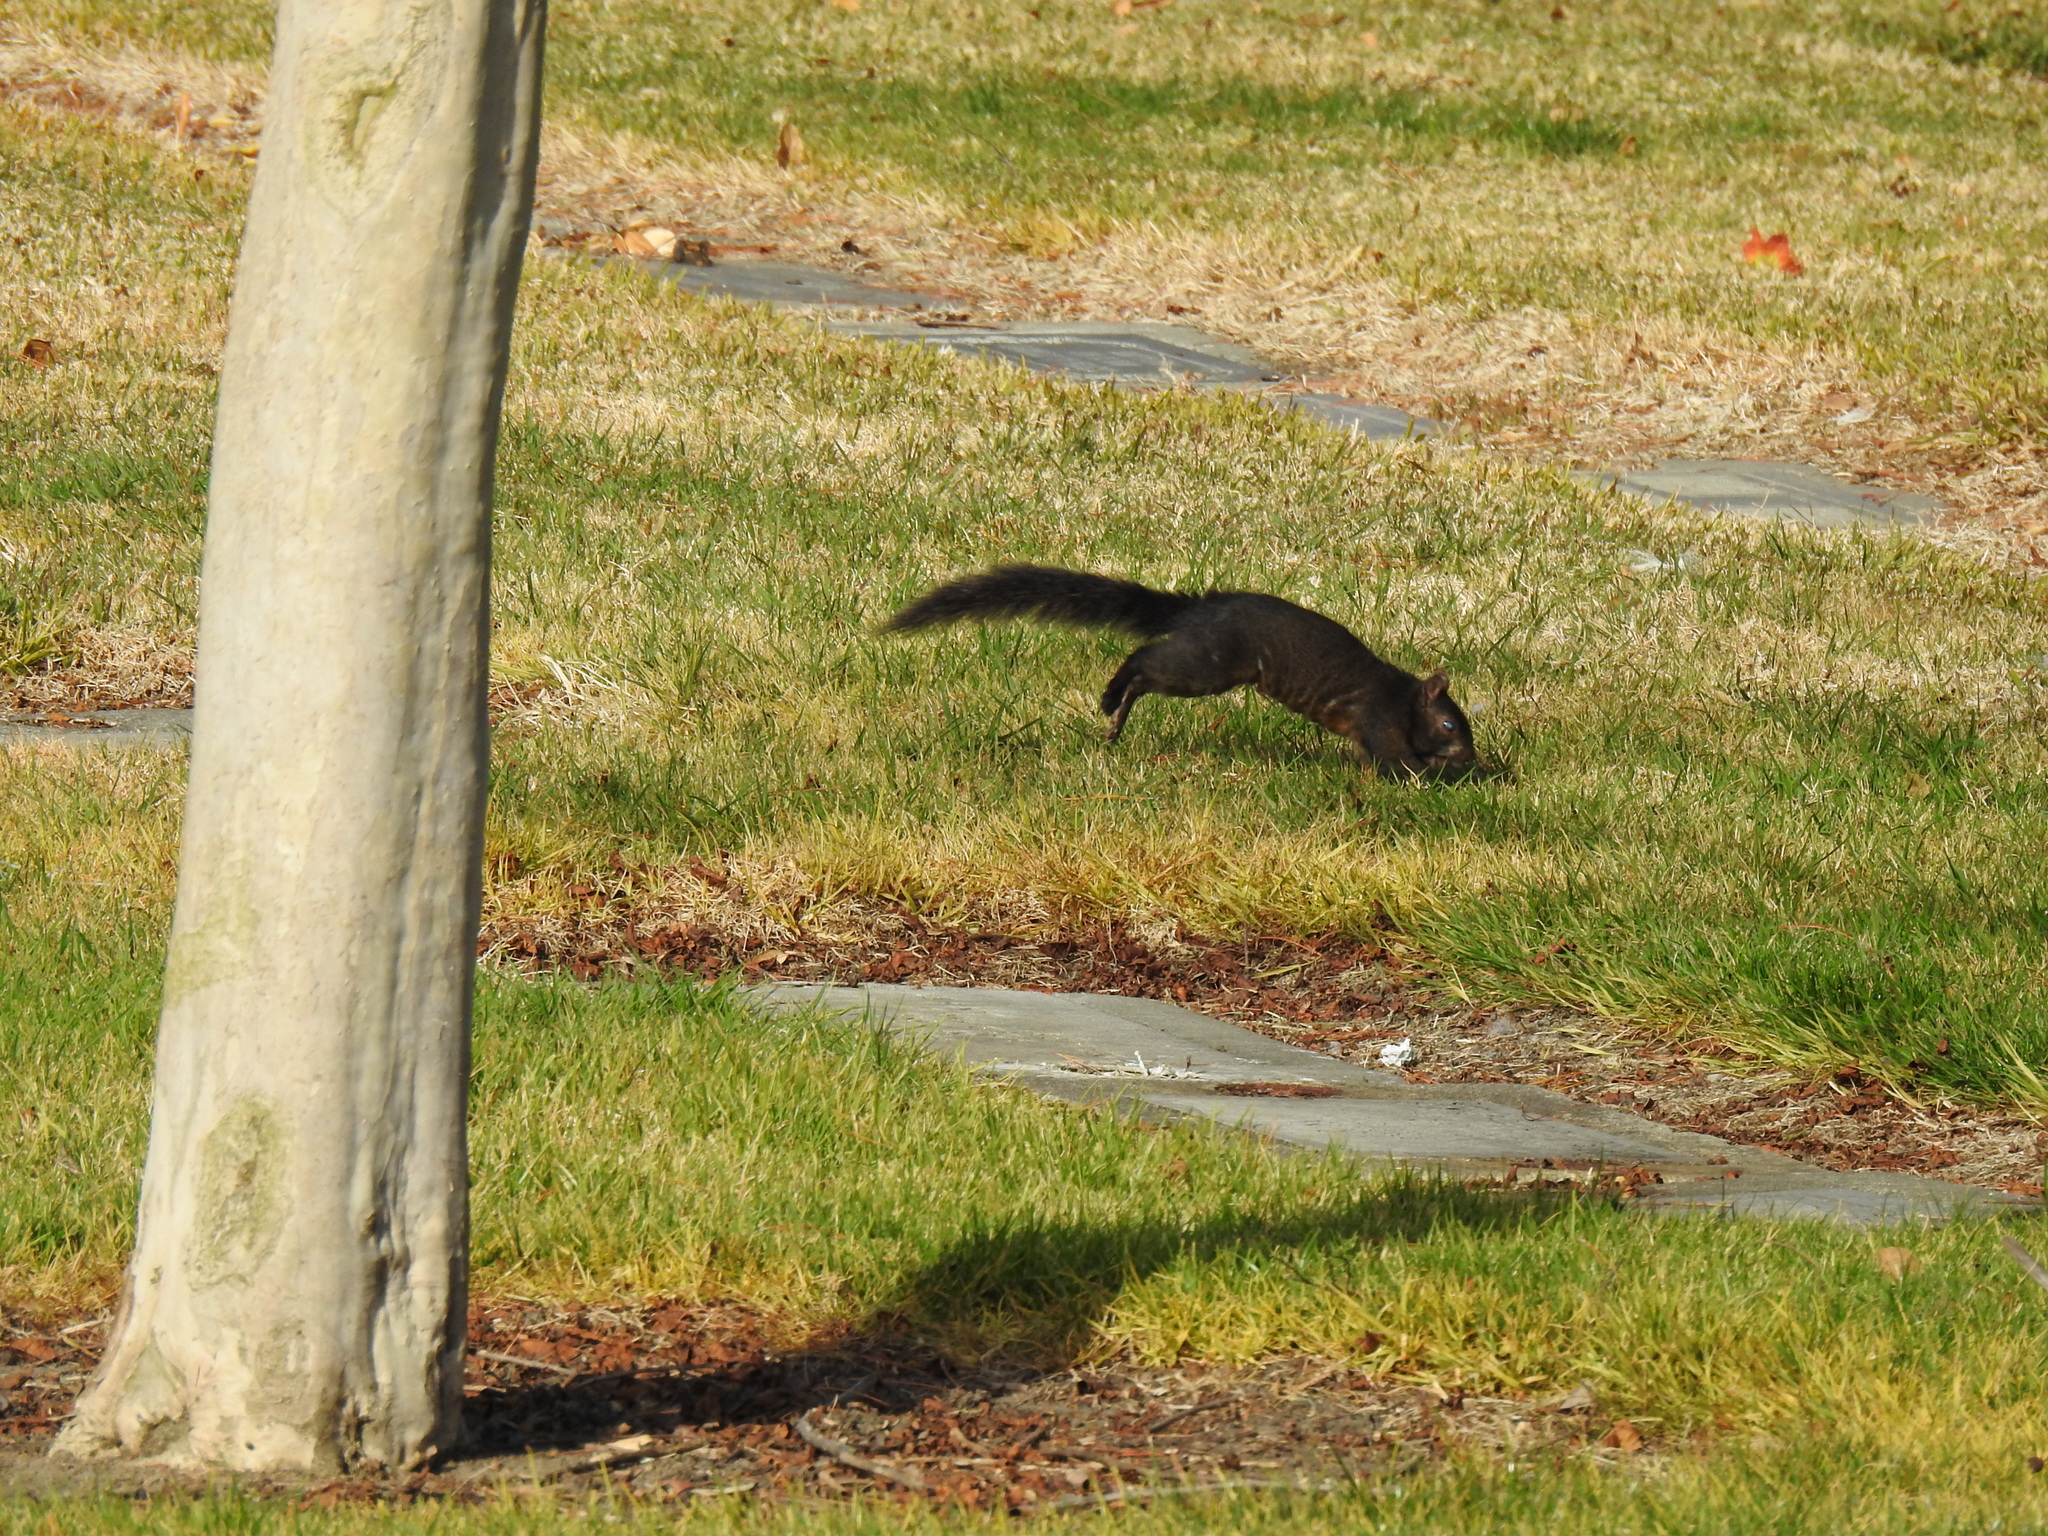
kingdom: Animalia
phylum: Chordata
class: Mammalia
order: Rodentia
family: Sciuridae
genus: Sciurus
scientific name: Sciurus carolinensis
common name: Eastern gray squirrel
